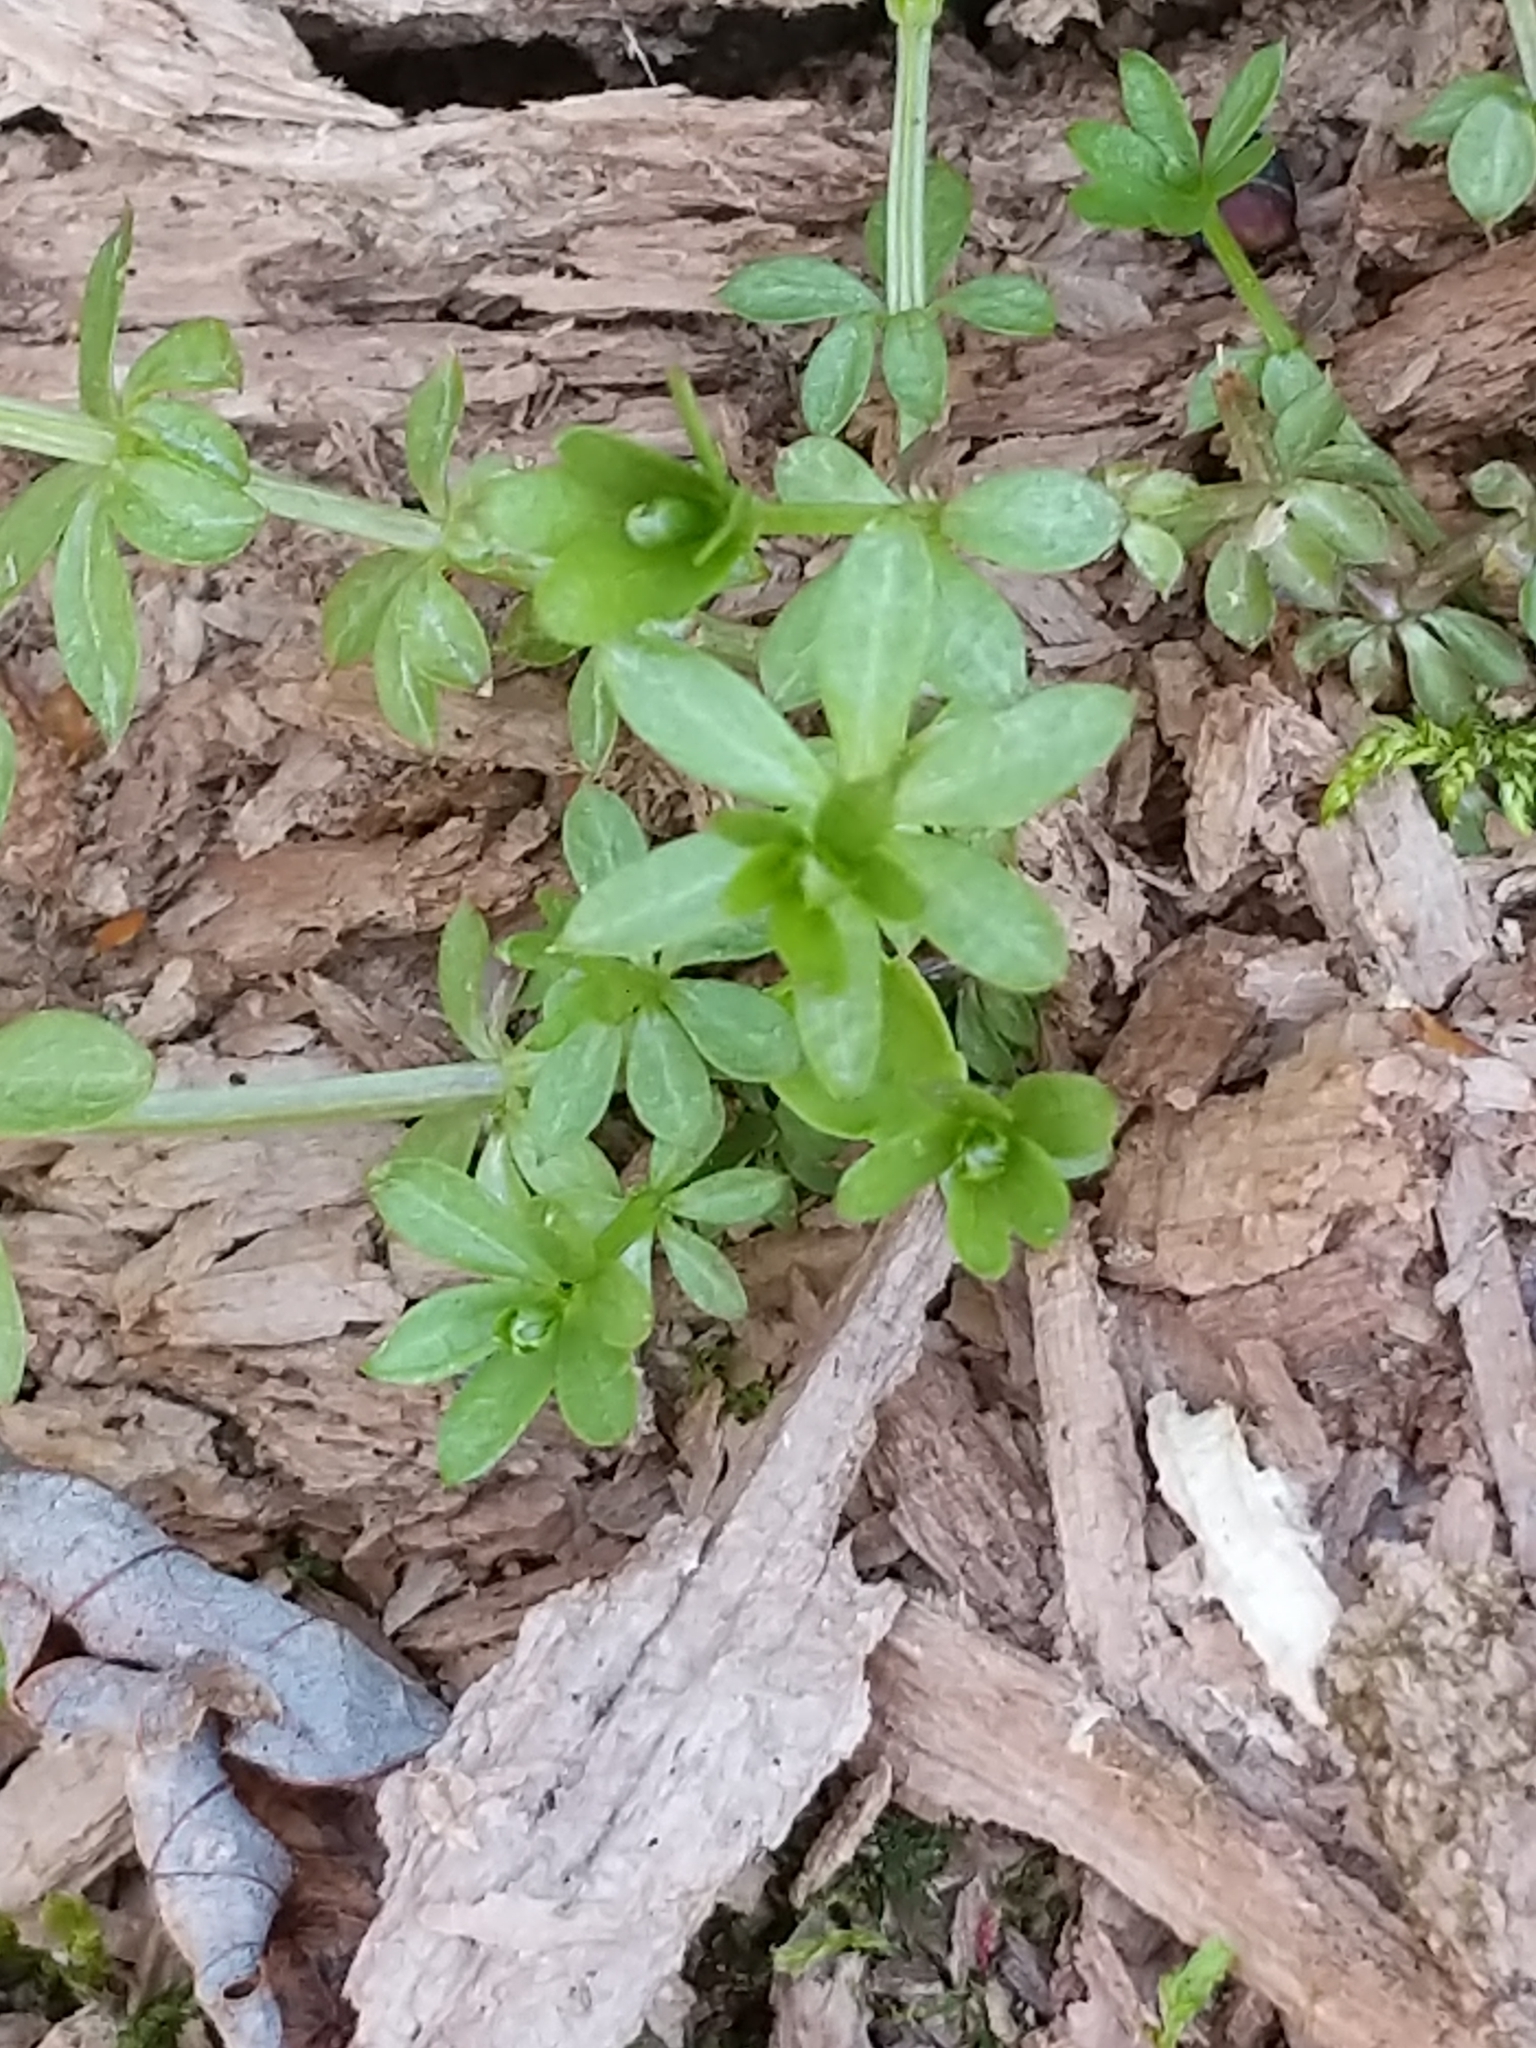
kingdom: Plantae
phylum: Tracheophyta
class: Magnoliopsida
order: Gentianales
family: Rubiaceae
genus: Galium
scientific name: Galium triflorum
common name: Fragrant bedstraw
